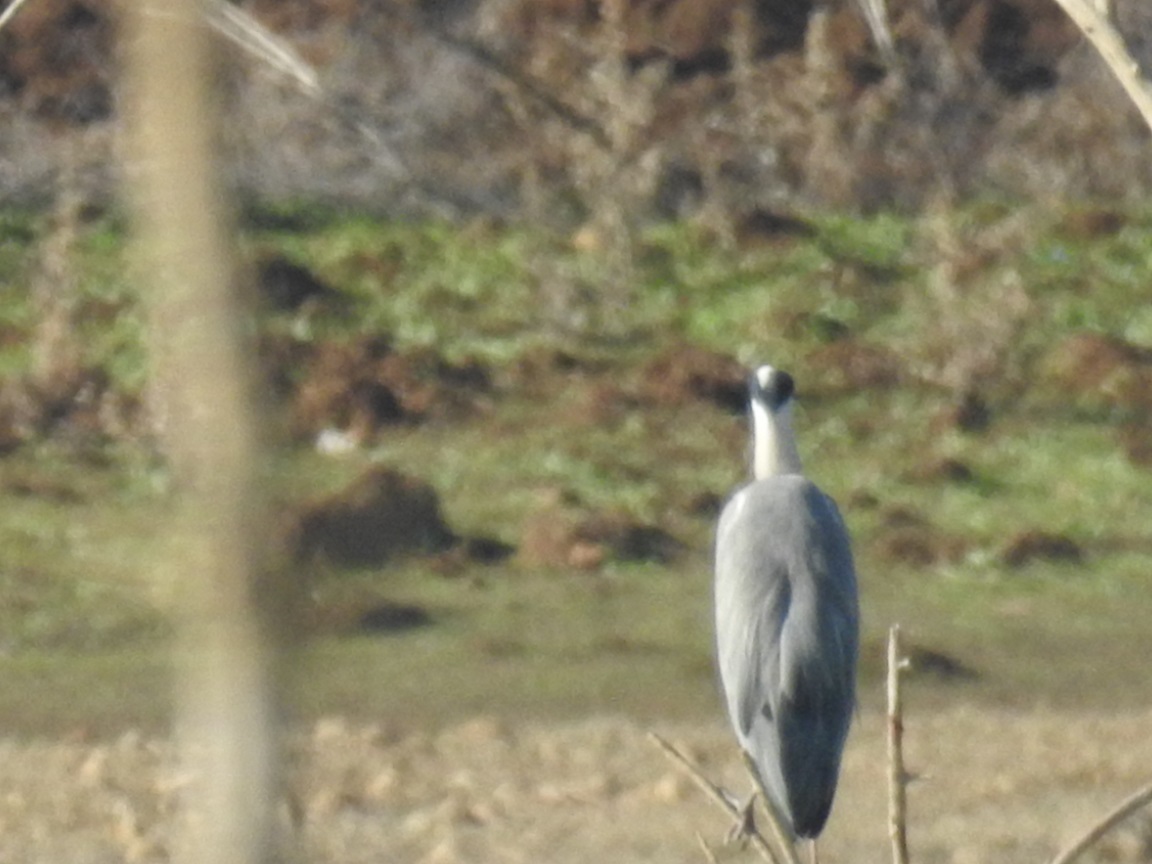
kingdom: Animalia
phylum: Chordata
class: Aves
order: Pelecaniformes
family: Ardeidae
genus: Ardea
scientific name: Ardea cinerea
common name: Grey heron
